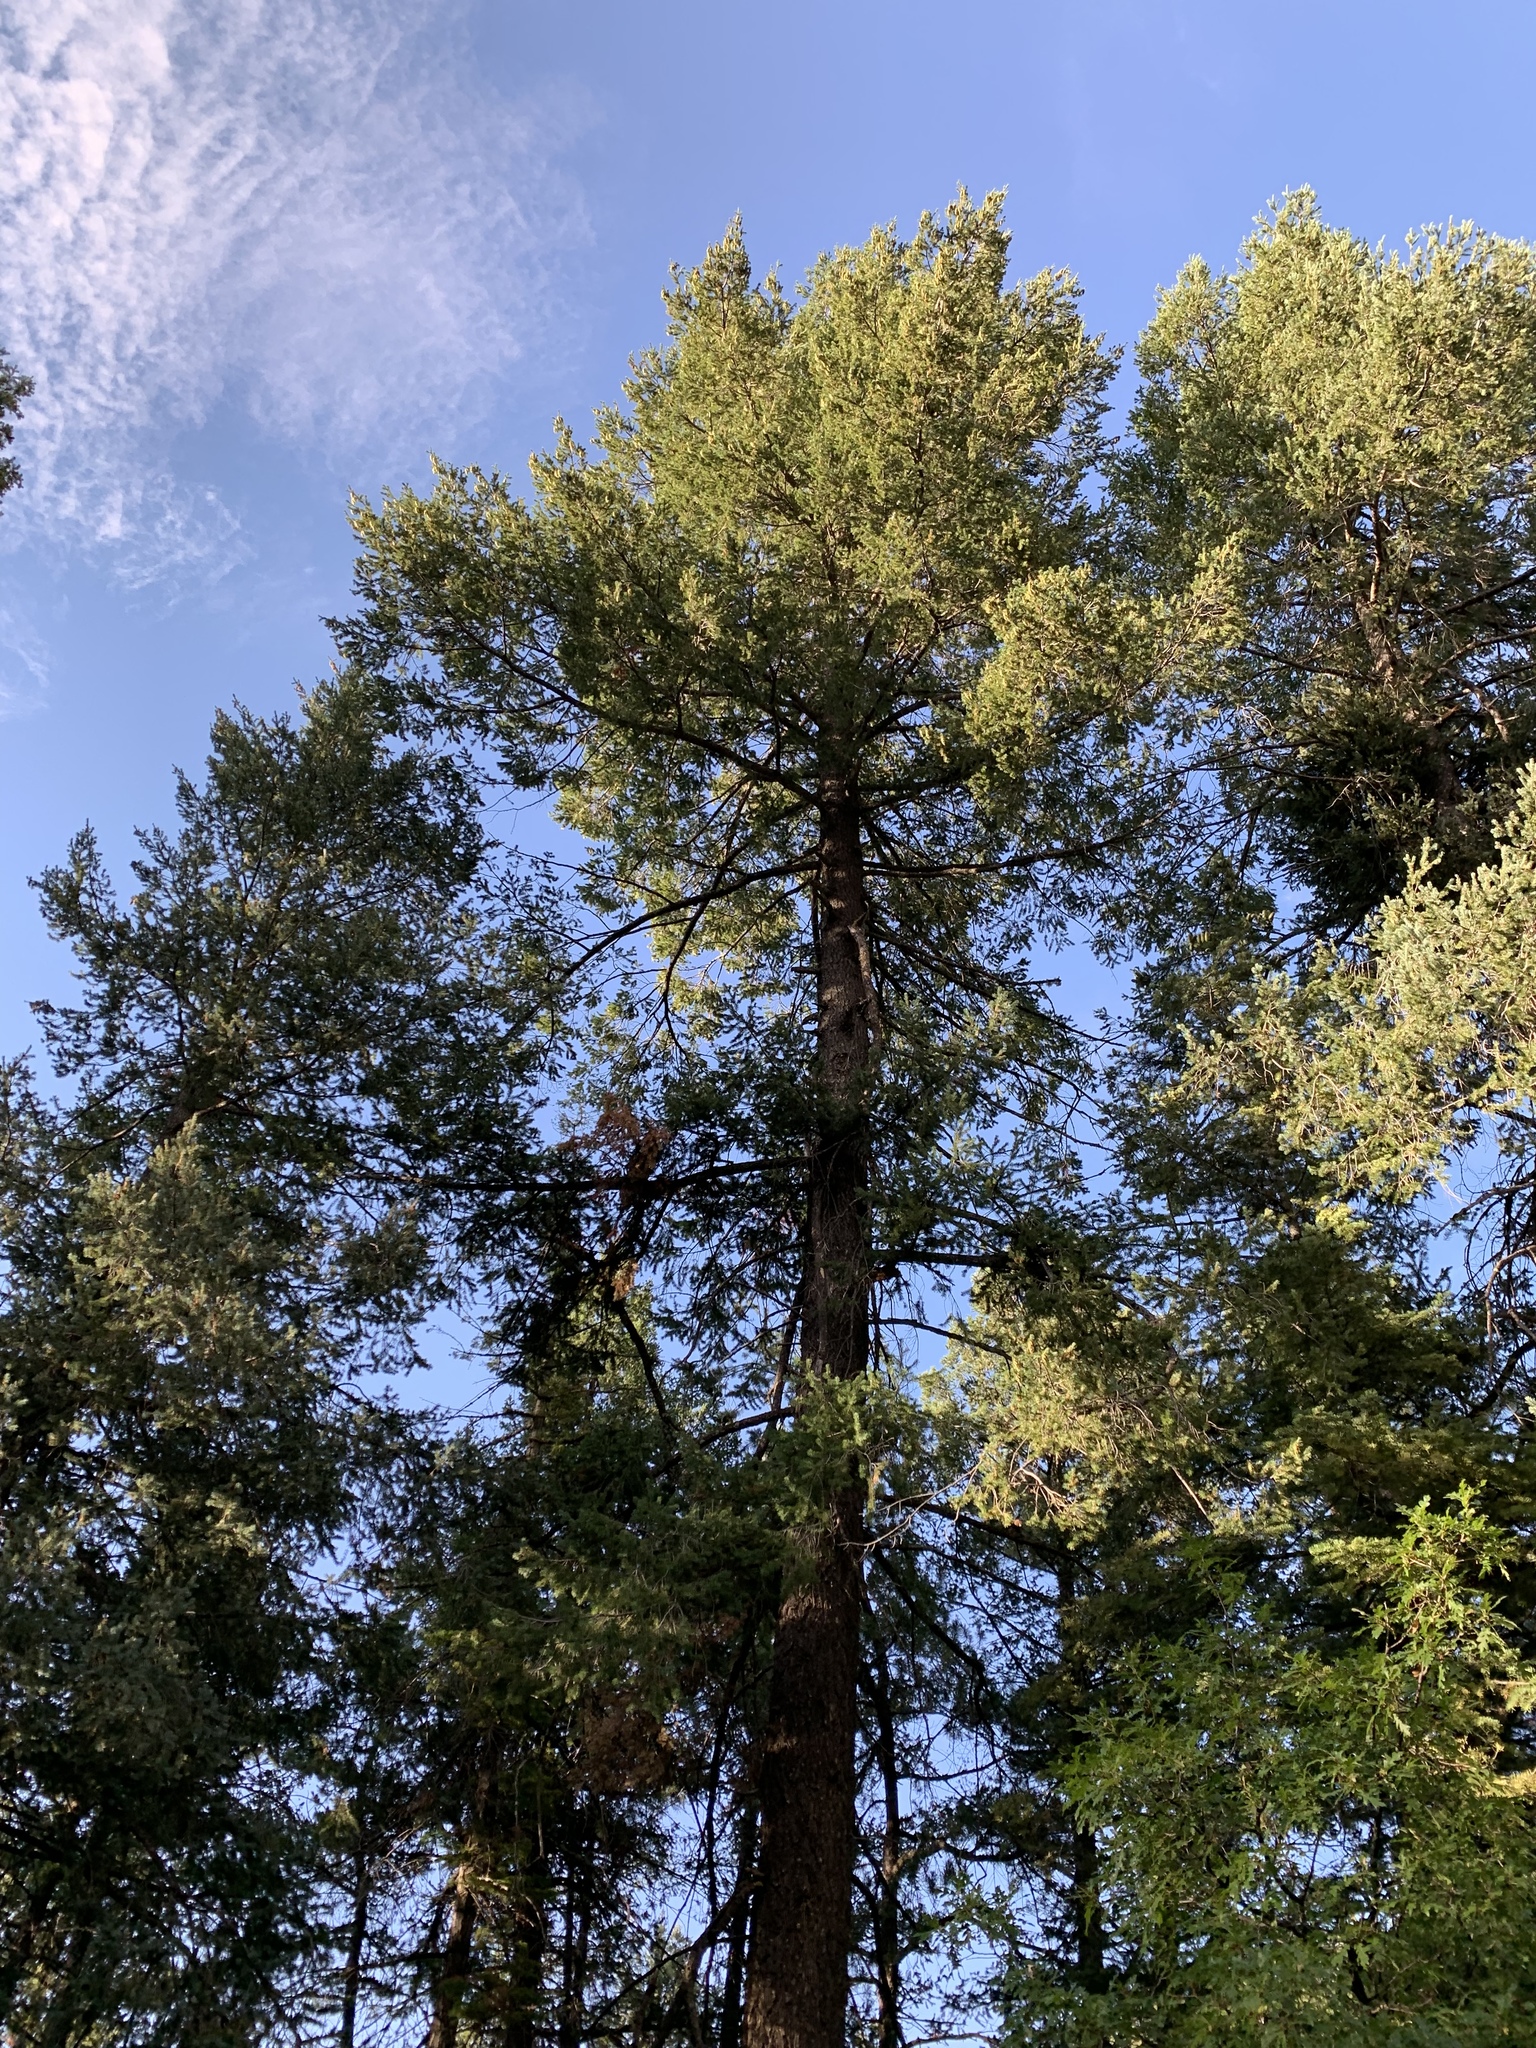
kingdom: Plantae
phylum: Tracheophyta
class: Pinopsida
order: Pinales
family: Pinaceae
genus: Pseudotsuga
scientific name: Pseudotsuga menziesii
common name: Douglas fir
